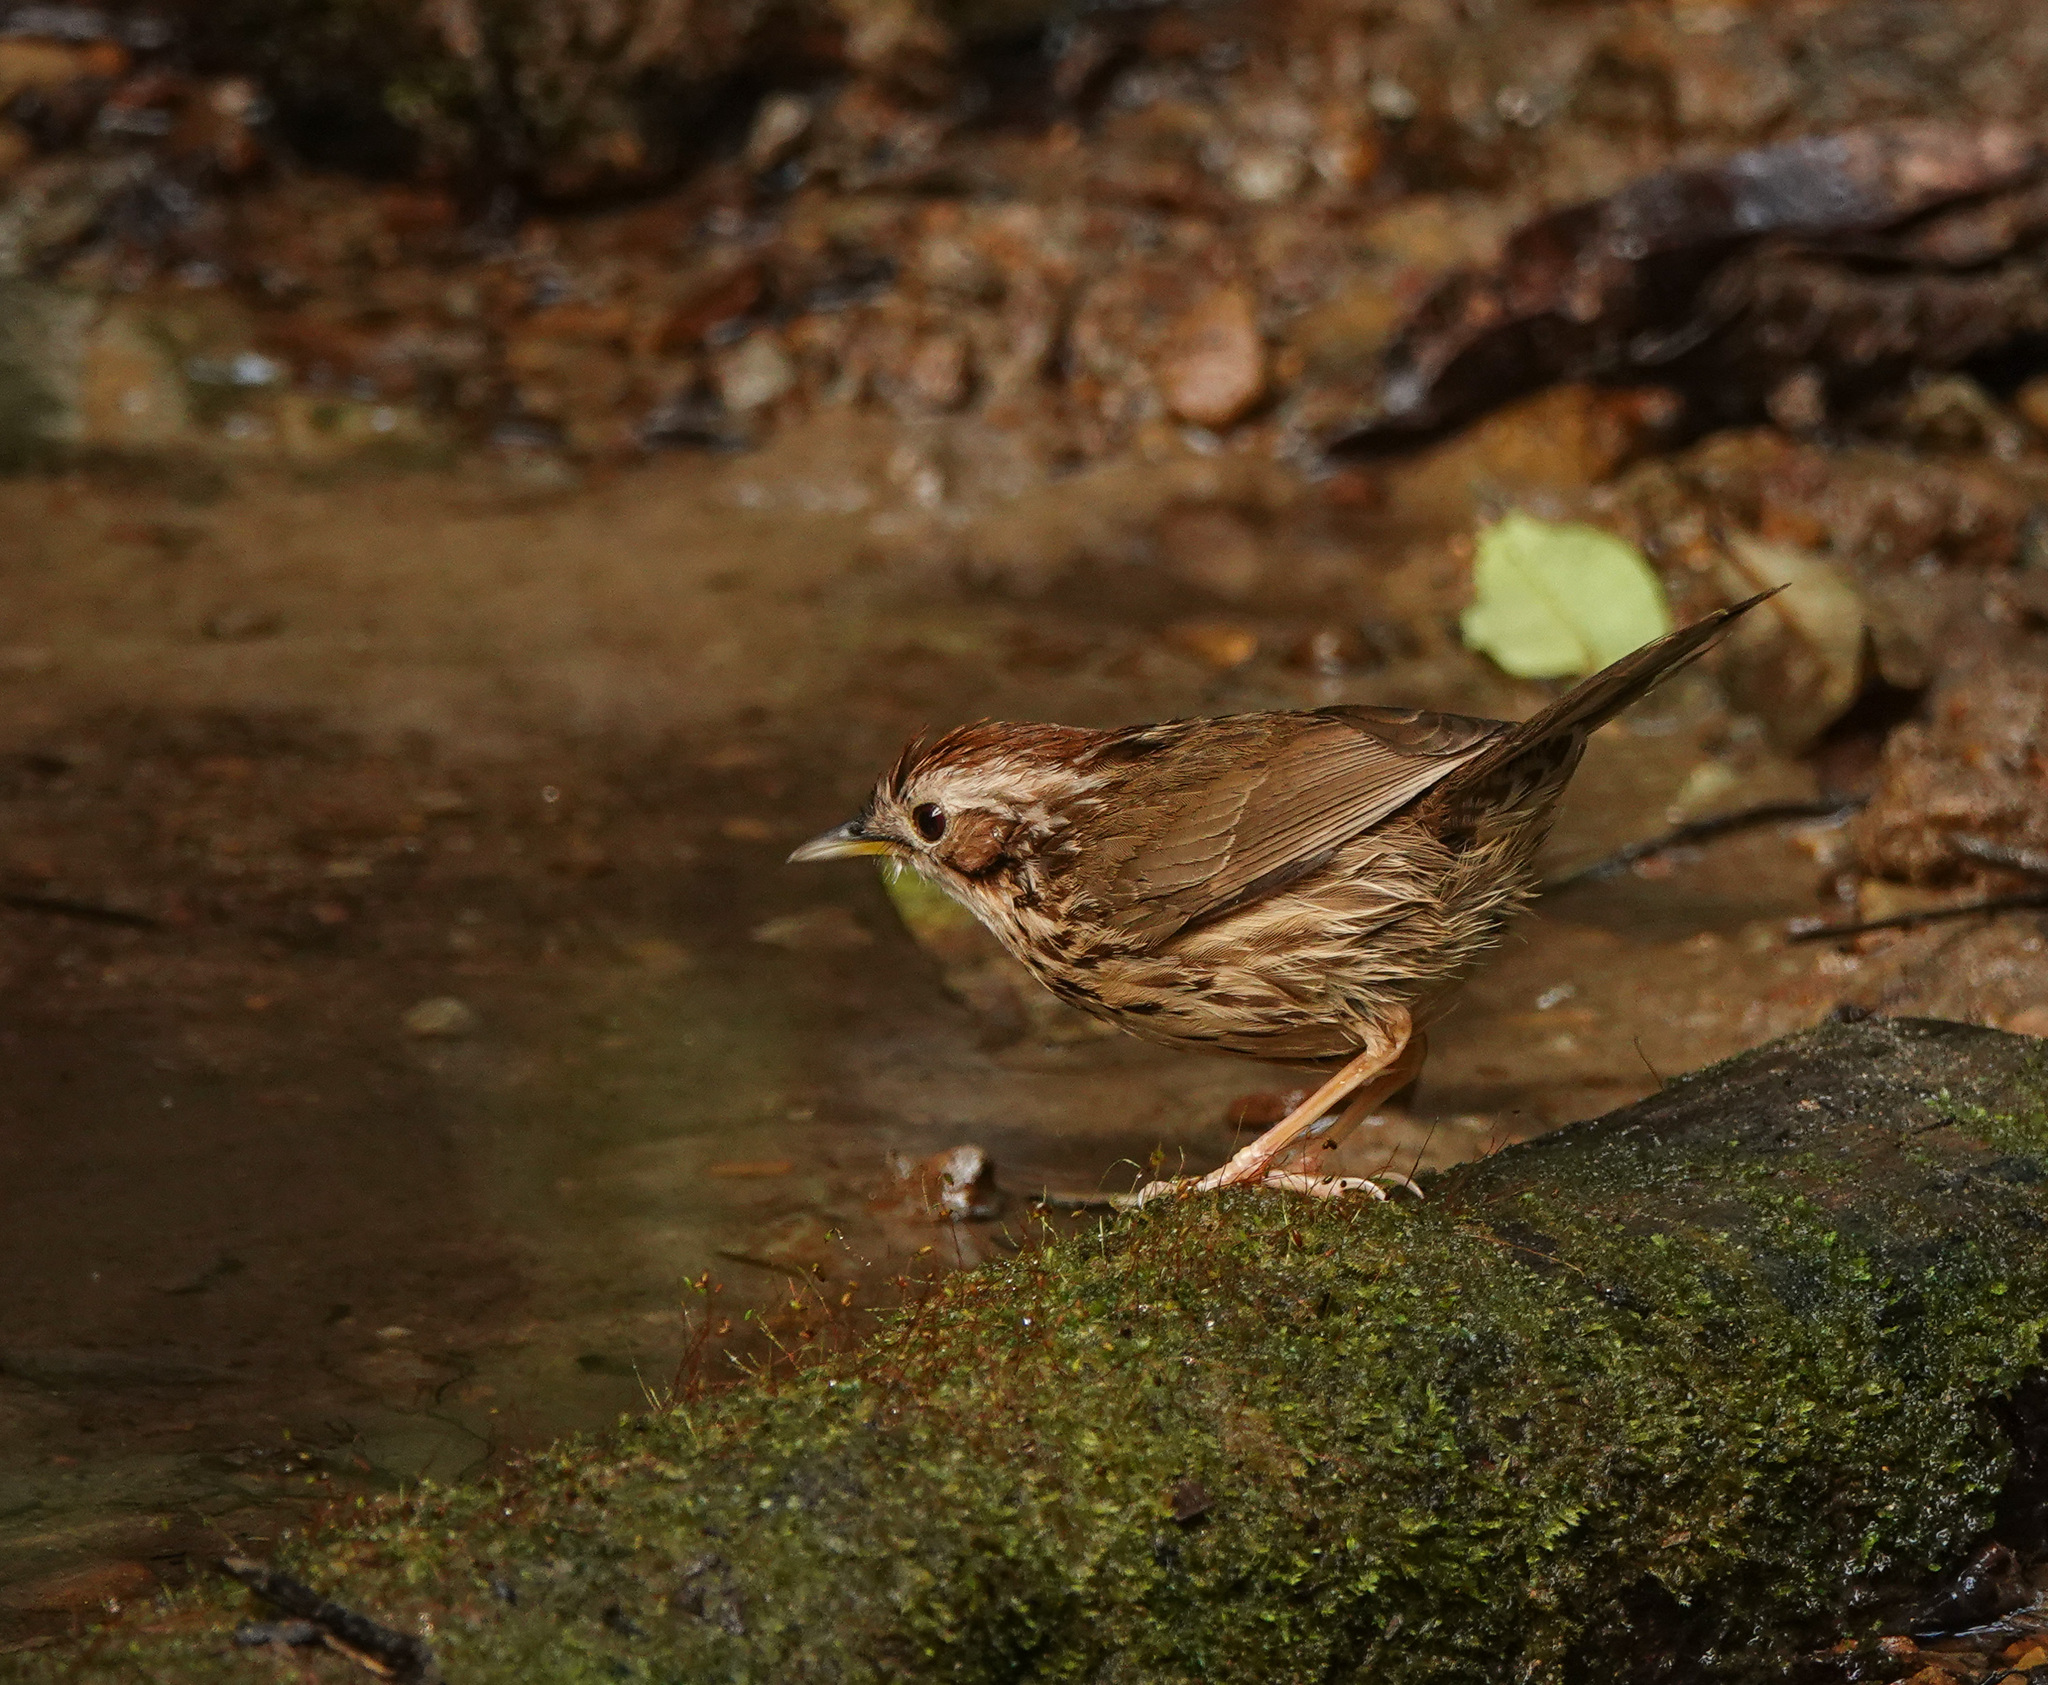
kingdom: Animalia
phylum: Chordata
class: Aves
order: Passeriformes
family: Pellorneidae
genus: Pellorneum
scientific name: Pellorneum ruficeps
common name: Puff-throated babbler
